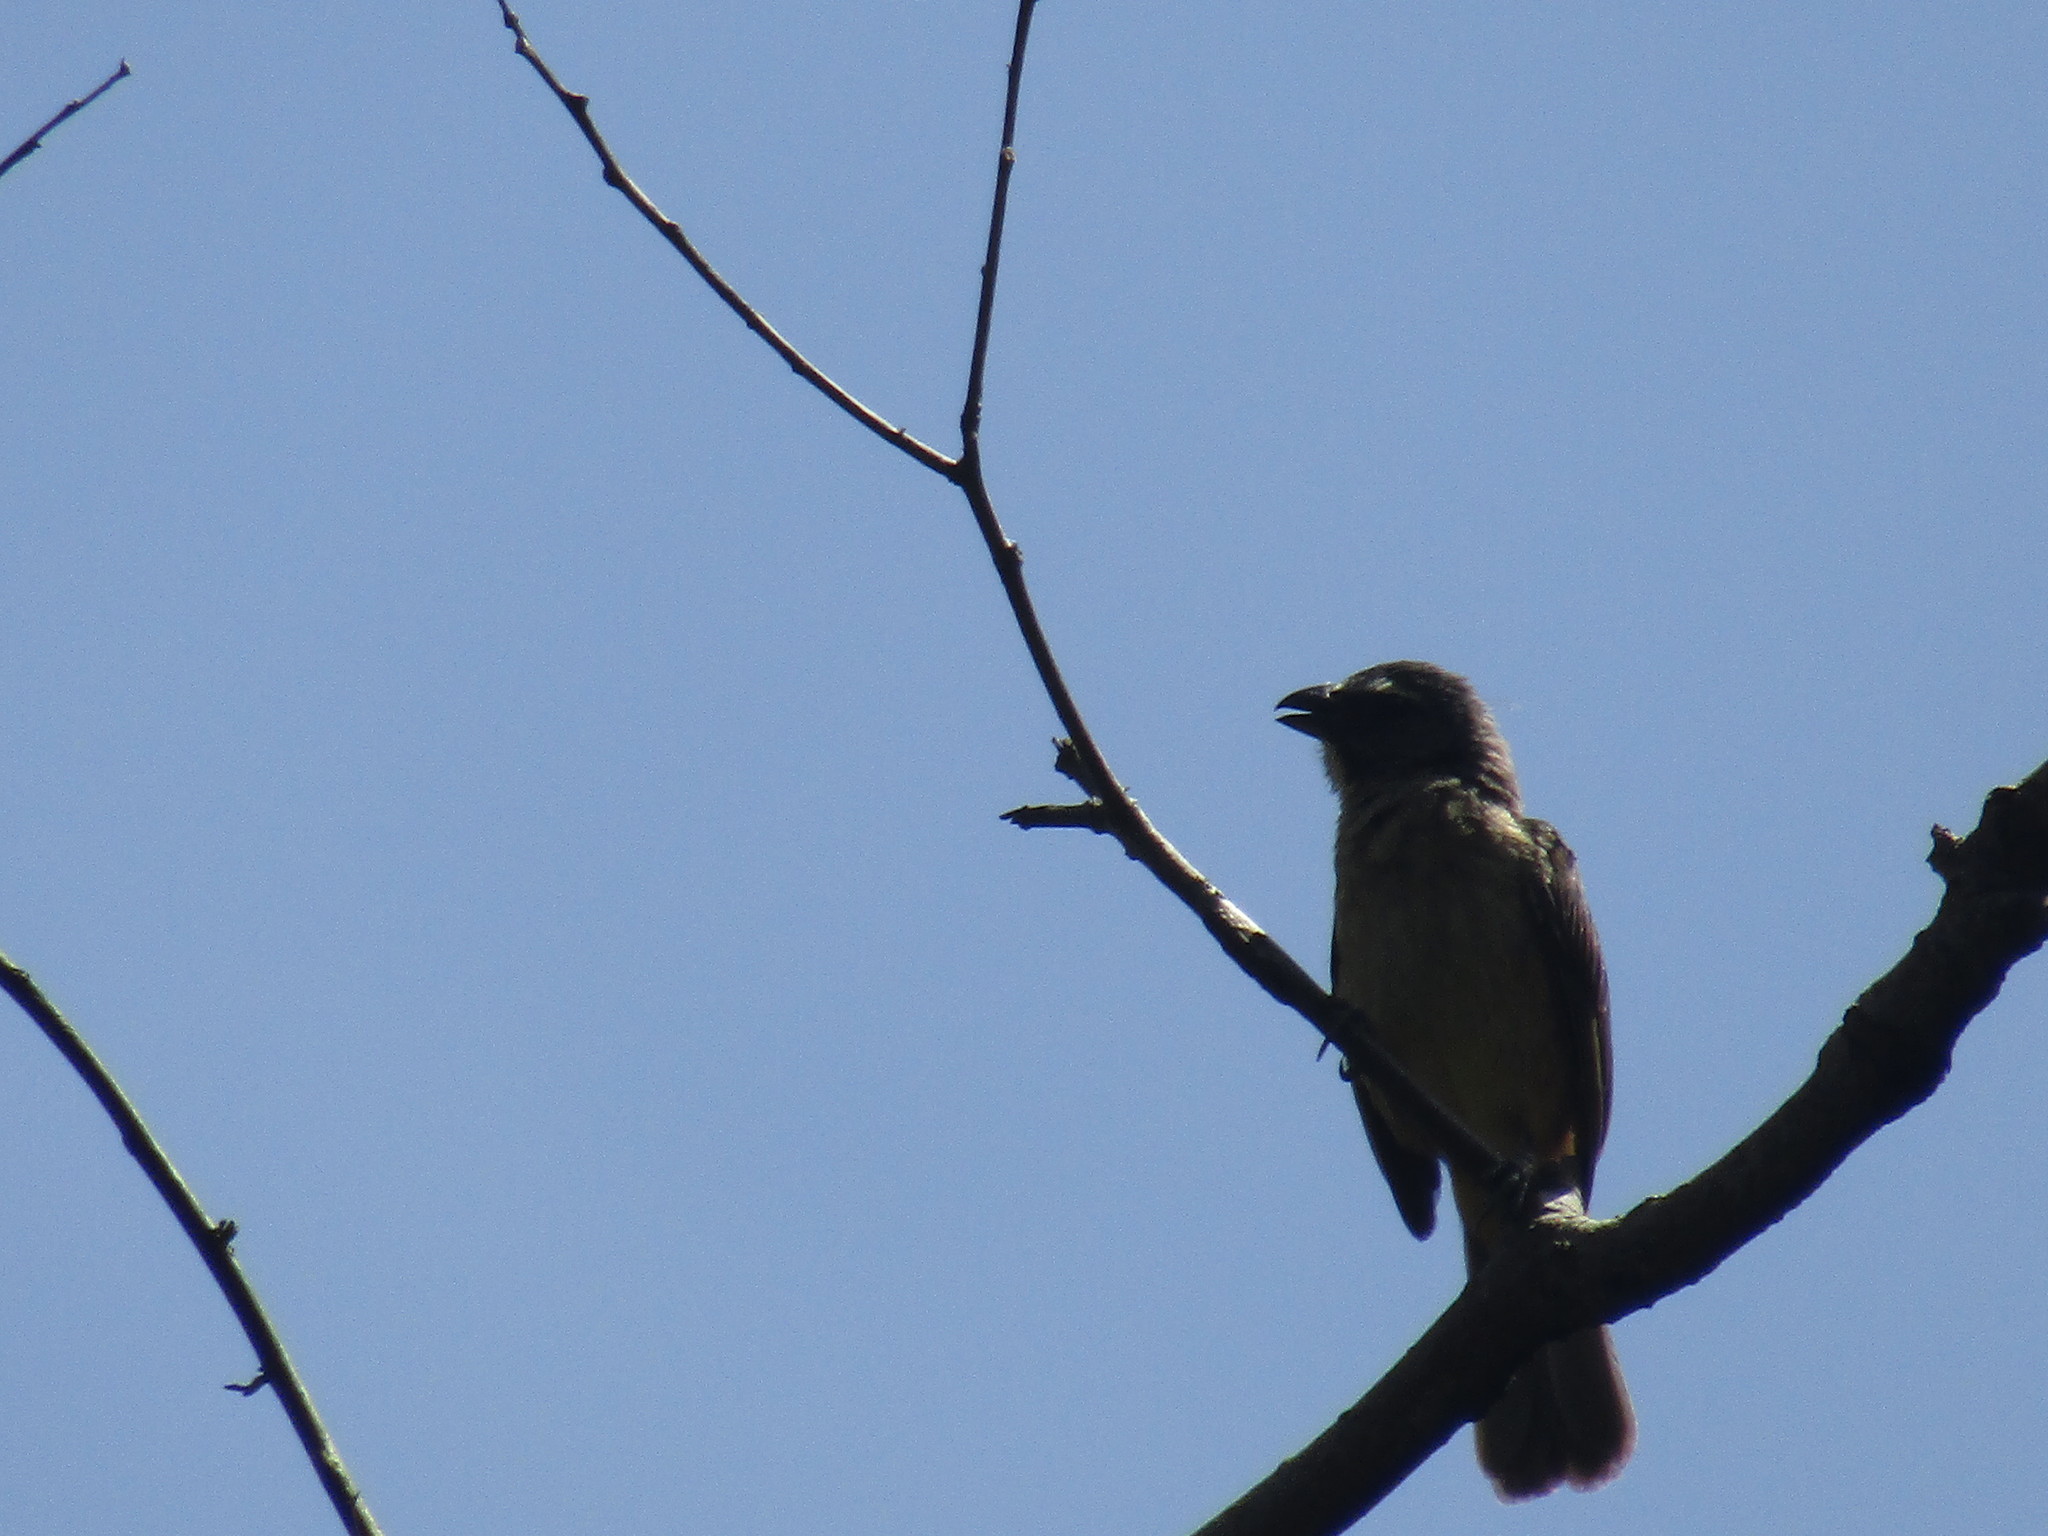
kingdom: Animalia
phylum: Chordata
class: Aves
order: Passeriformes
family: Thraupidae
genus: Saltator
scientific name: Saltator grandis
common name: Cinnamon-bellied saltator
